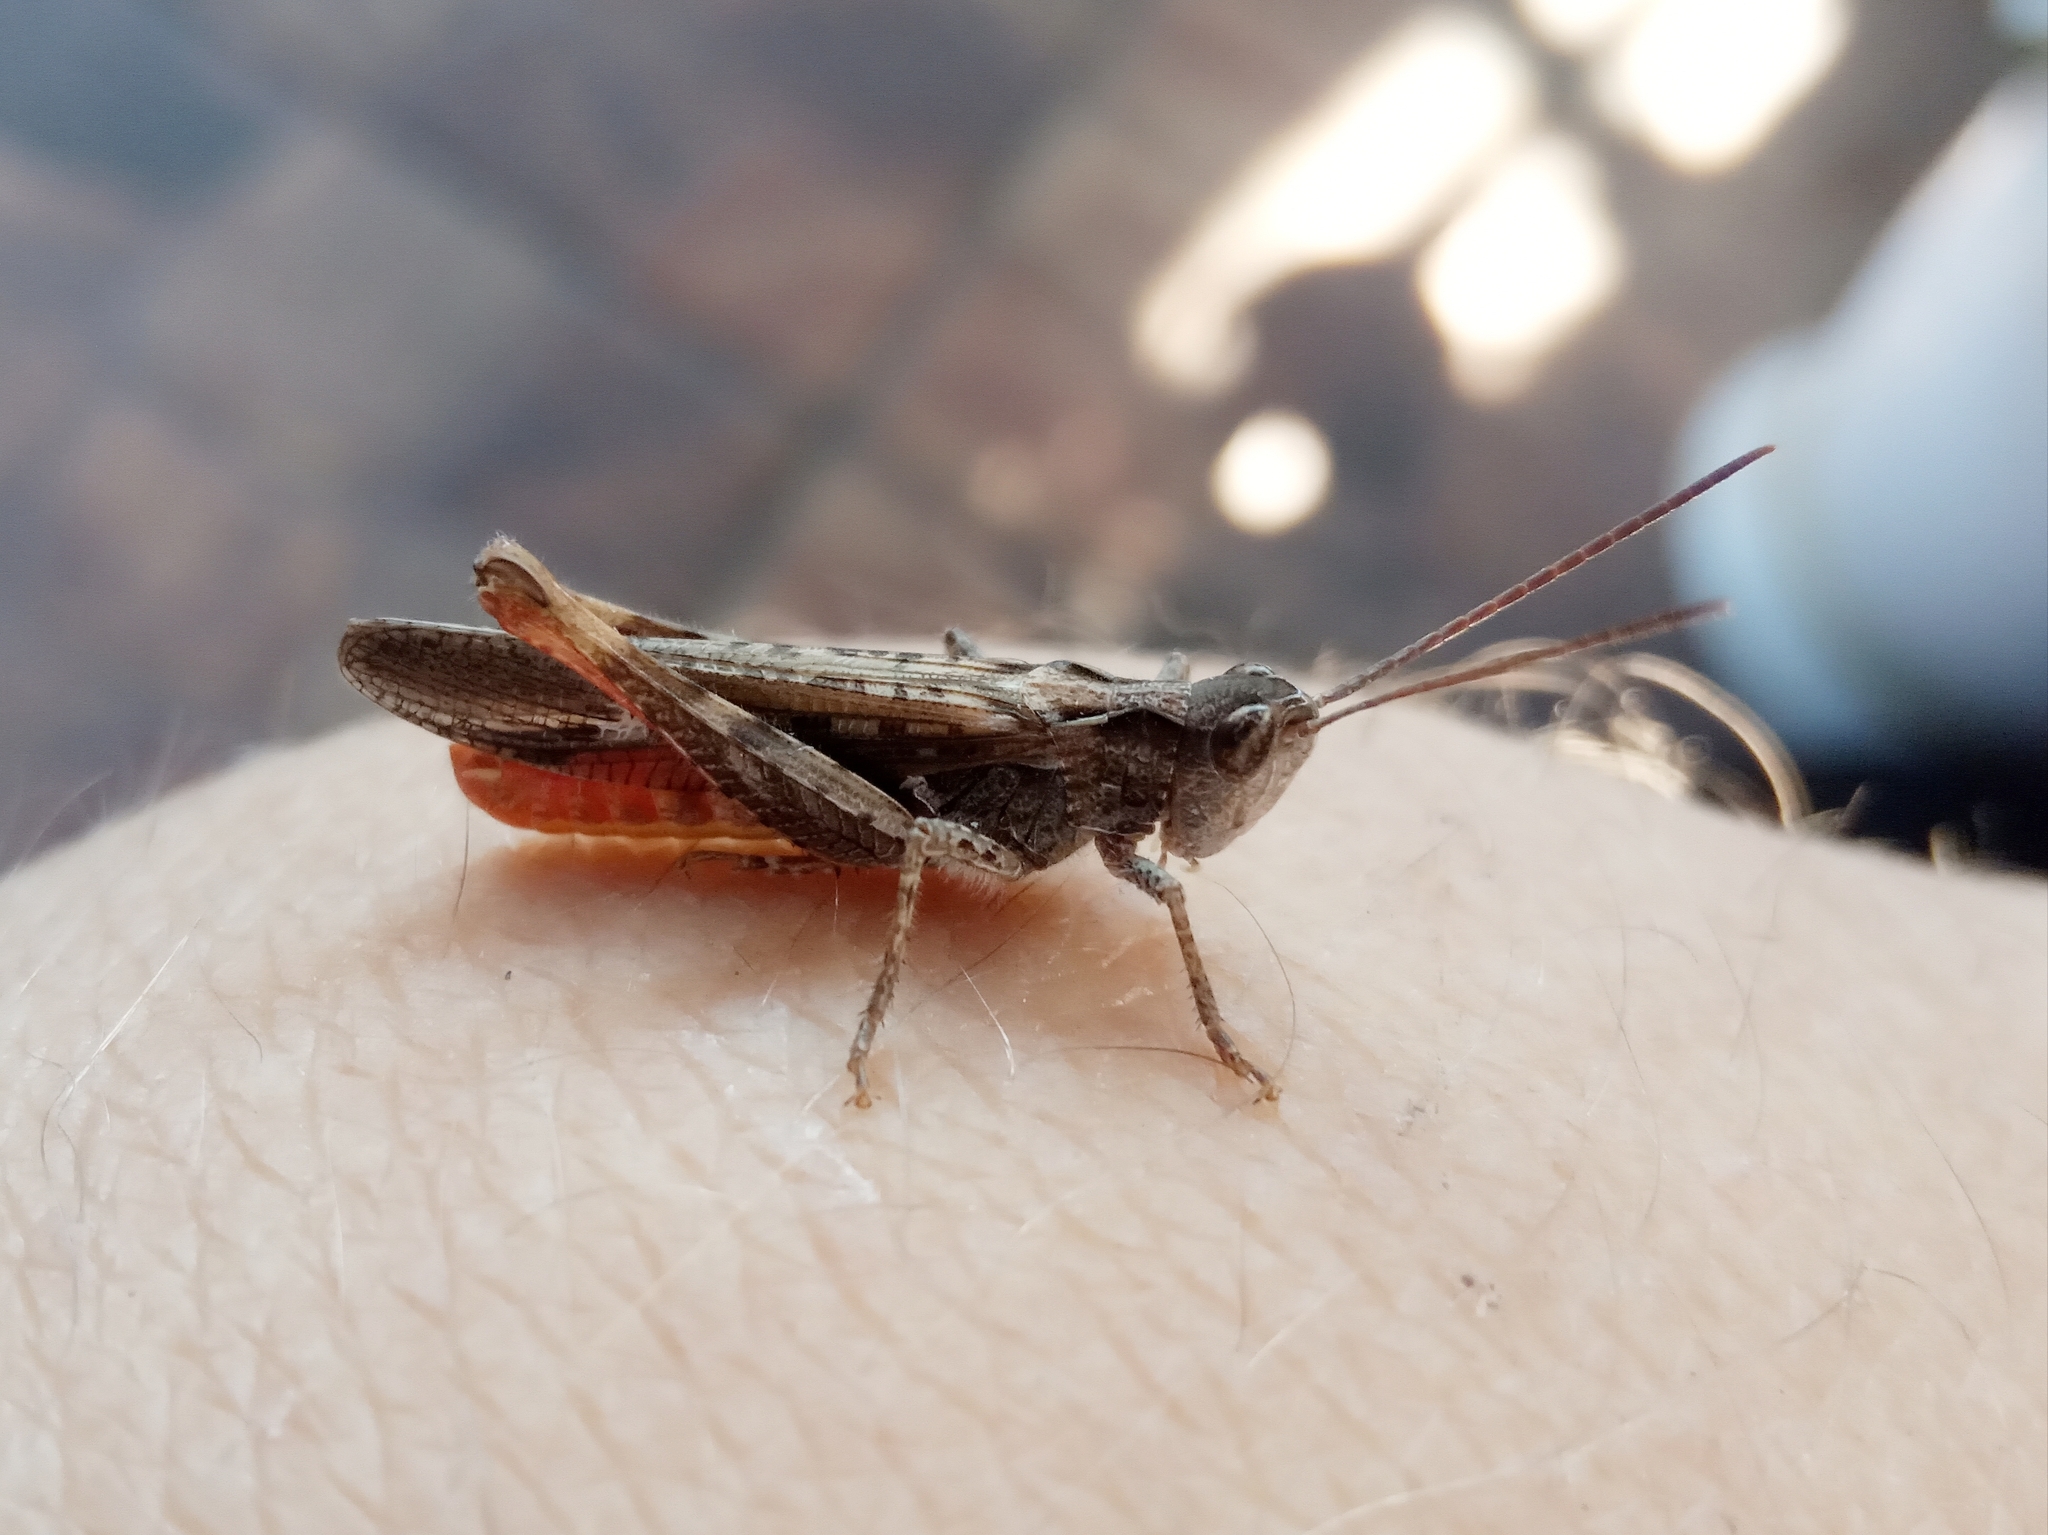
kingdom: Animalia
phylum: Arthropoda
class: Insecta
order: Orthoptera
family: Acrididae
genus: Glyptobothrus
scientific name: Glyptobothrus
